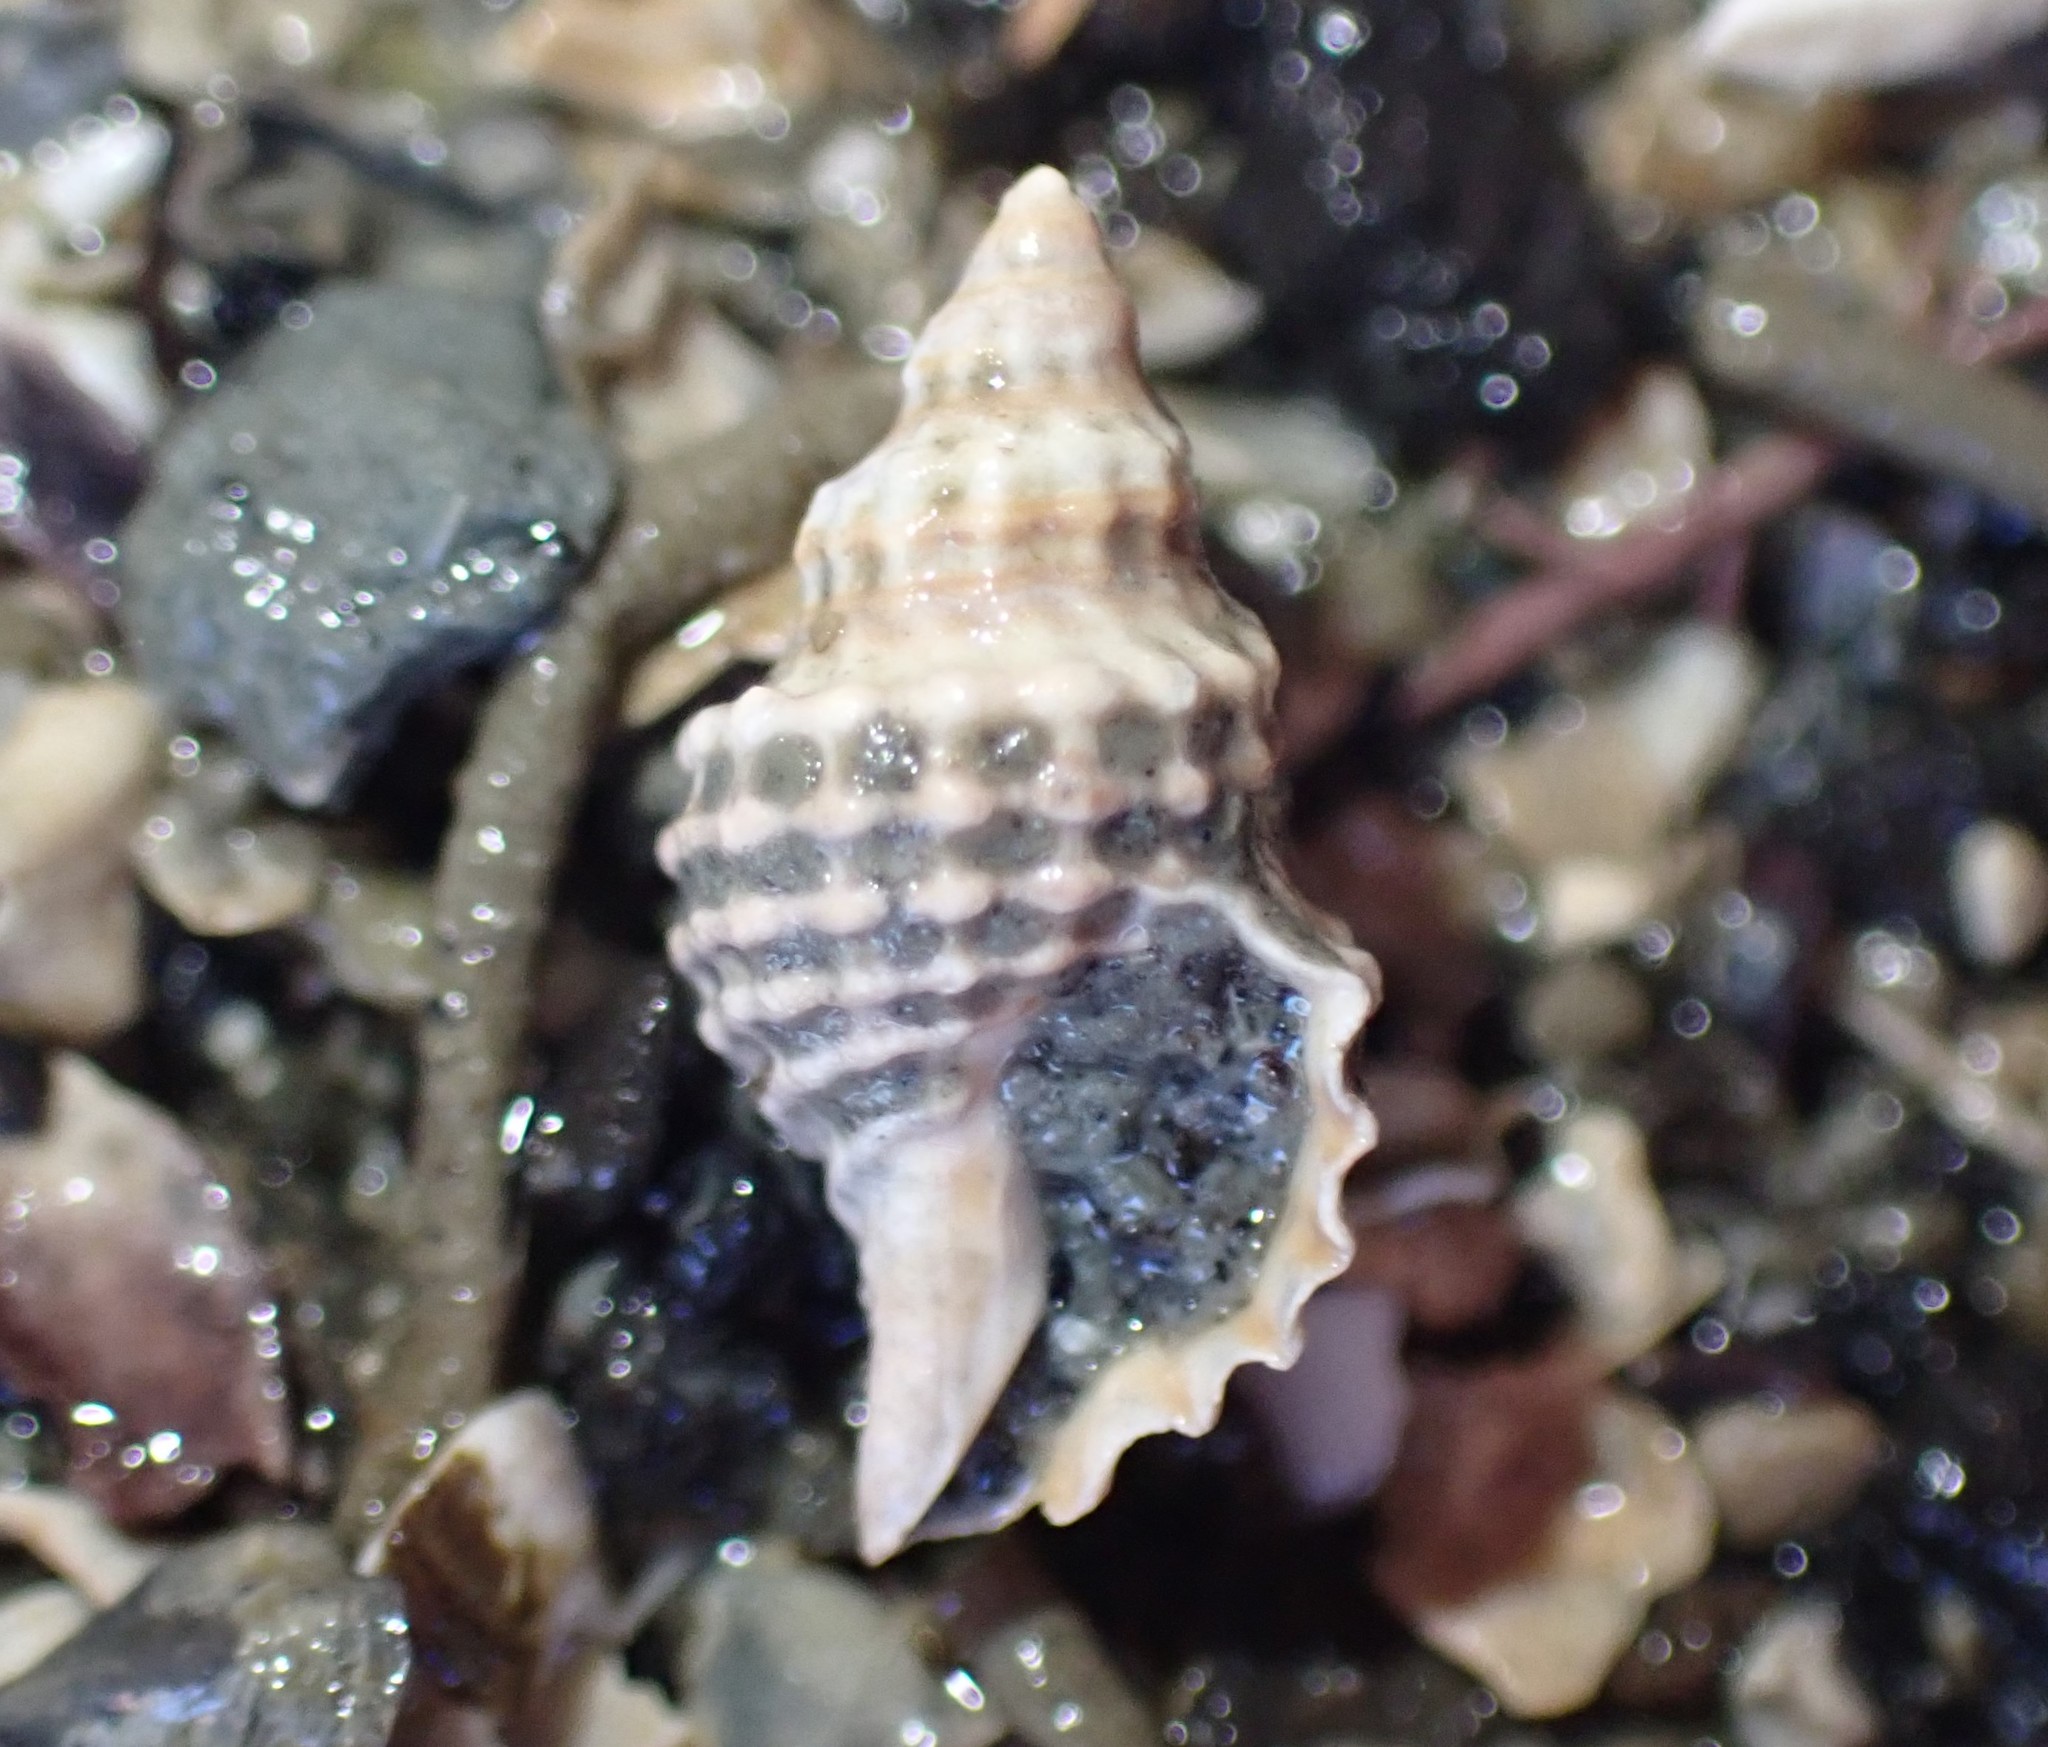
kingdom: Animalia
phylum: Mollusca
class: Gastropoda
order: Neogastropoda
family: Muricidae
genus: Xymene
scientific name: Xymene plebeius
